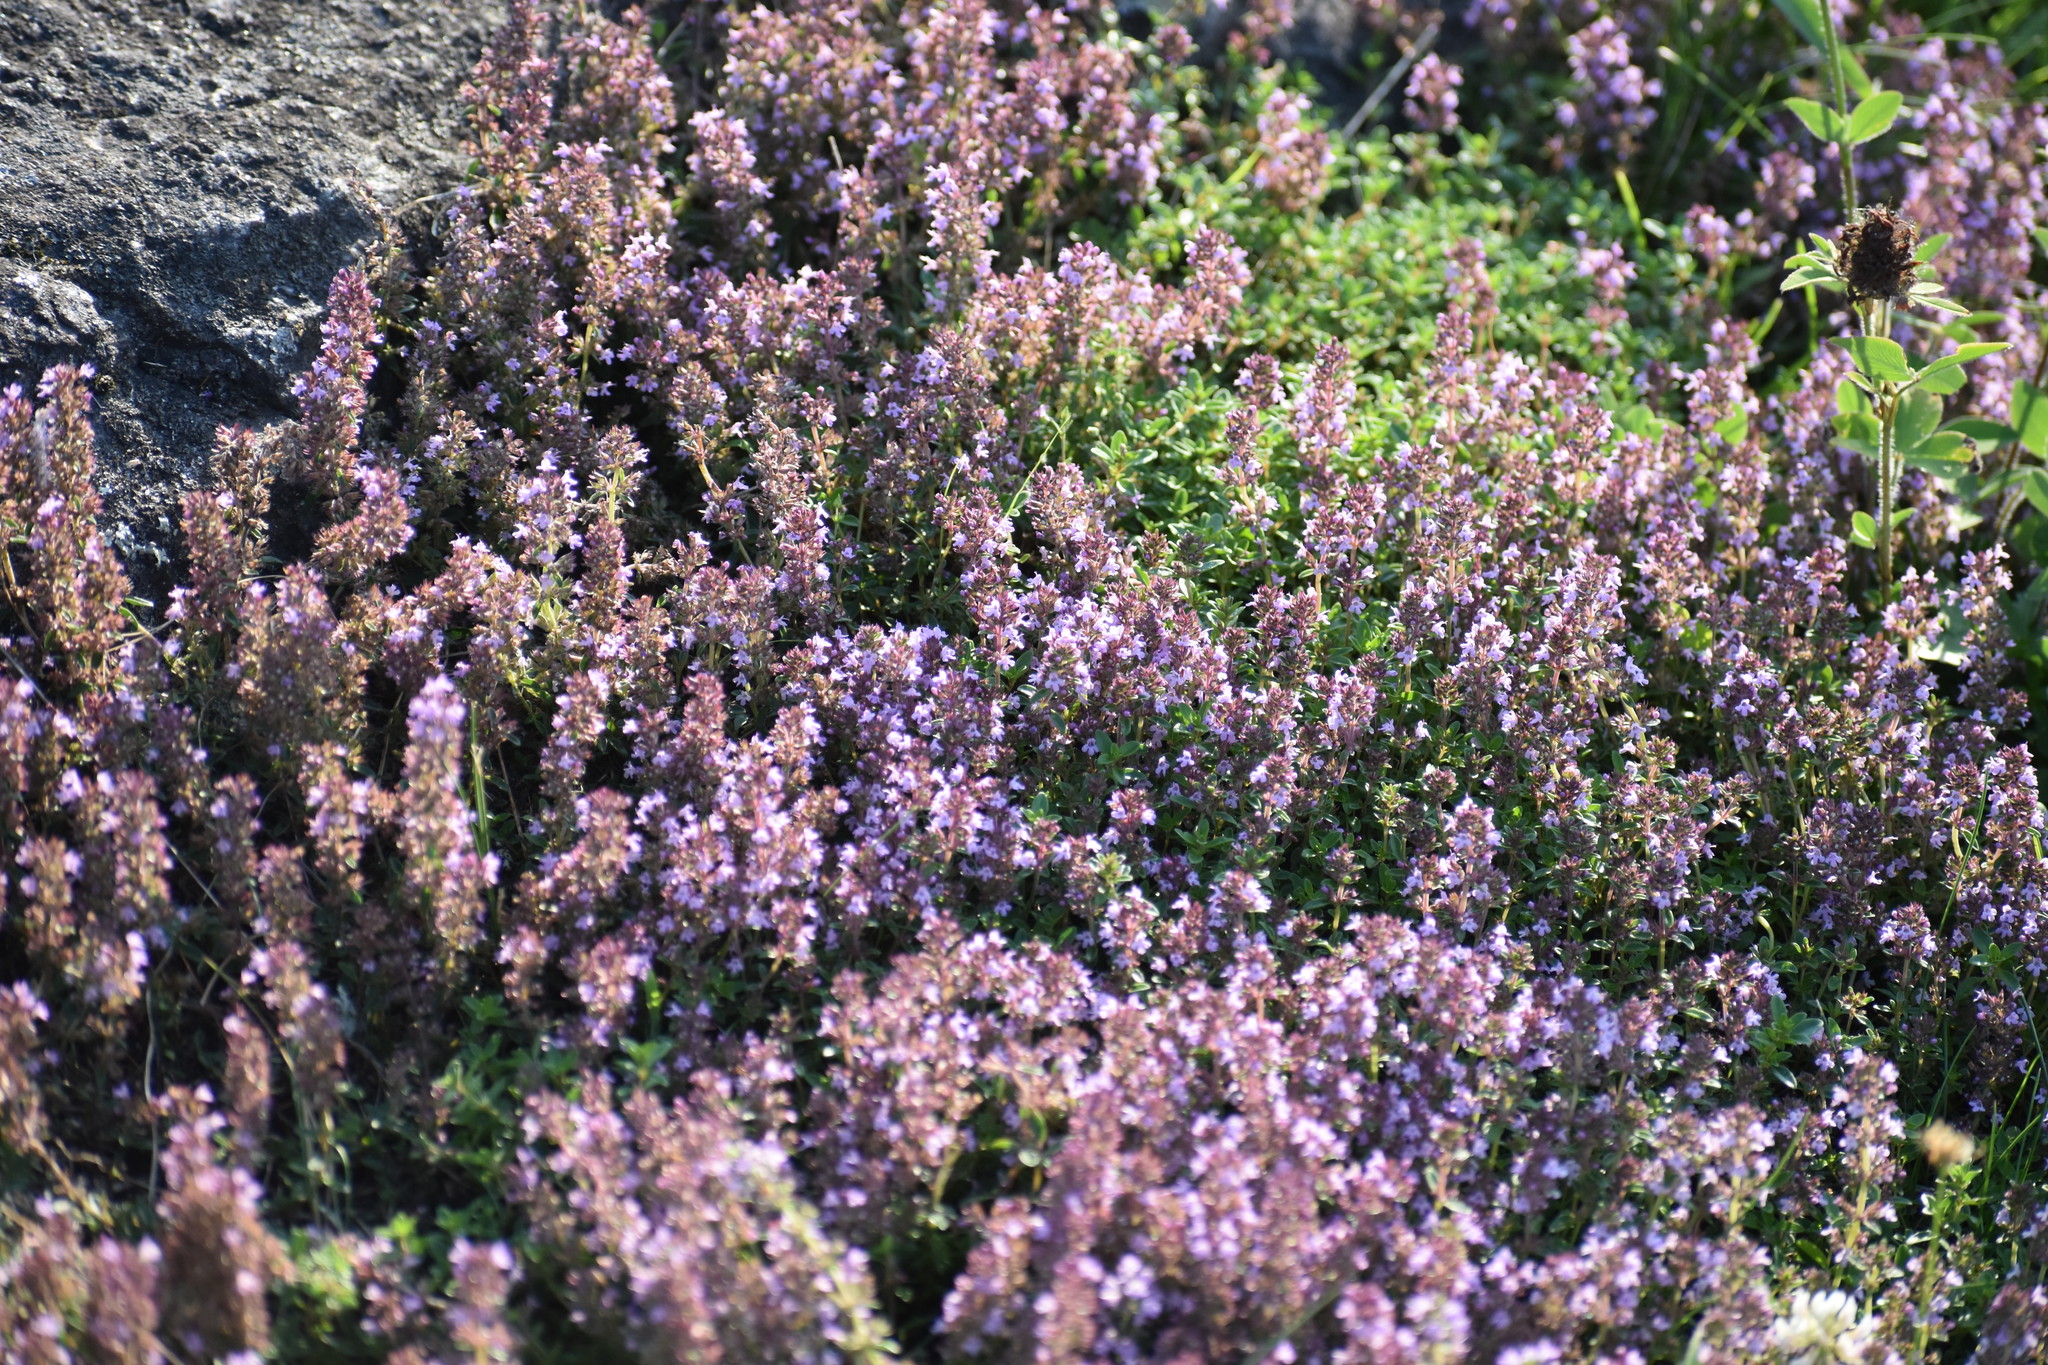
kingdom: Plantae
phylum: Tracheophyta
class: Magnoliopsida
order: Lamiales
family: Lamiaceae
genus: Thymus
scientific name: Thymus pulegioides
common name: Large thyme
